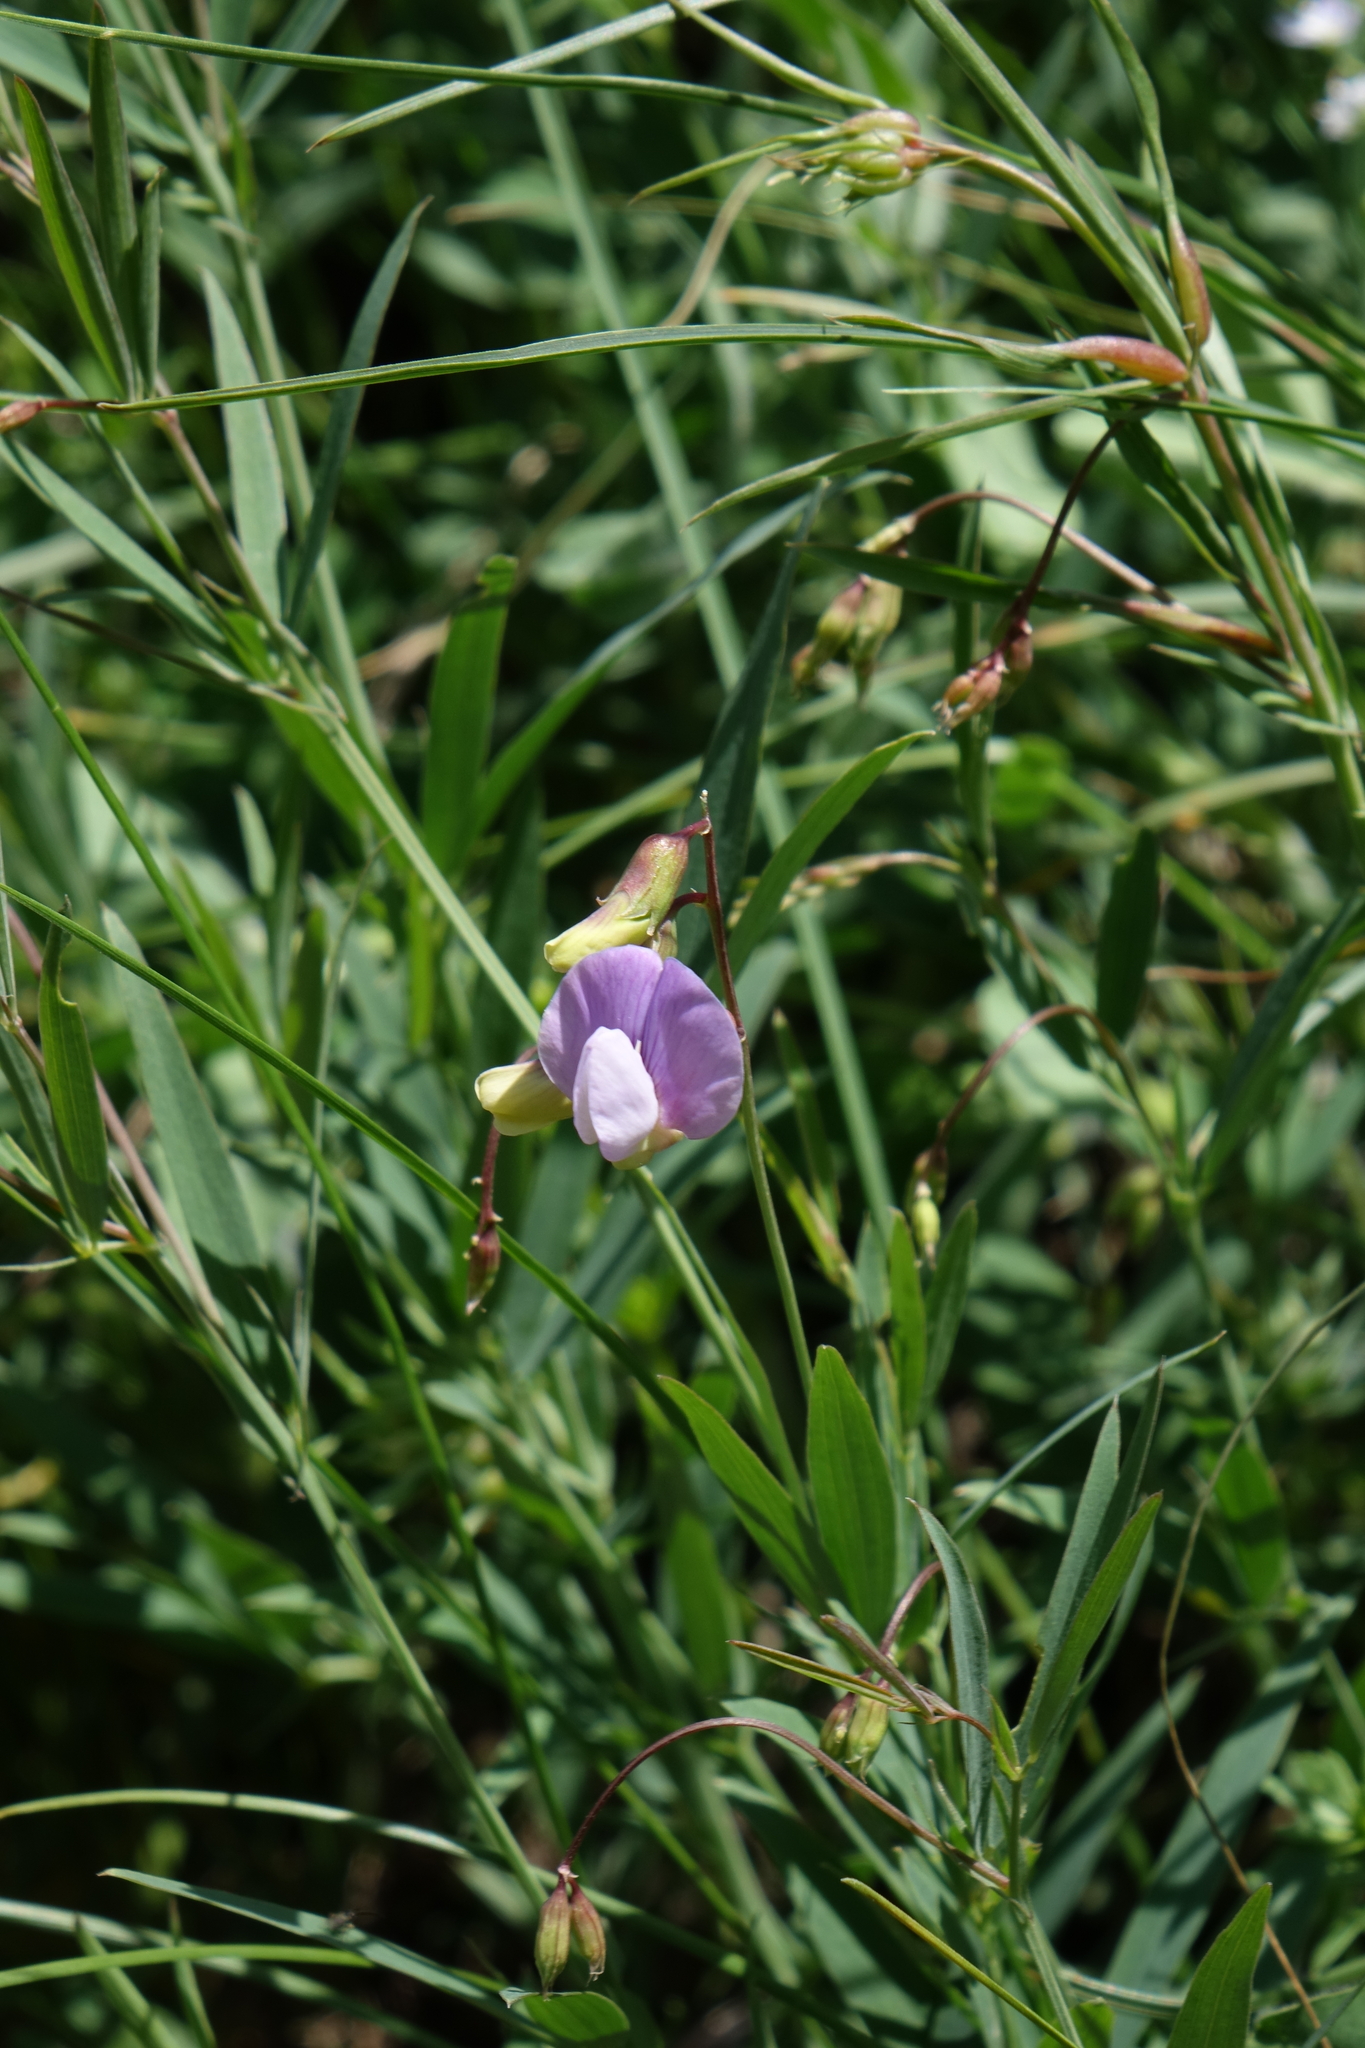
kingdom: Plantae
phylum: Tracheophyta
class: Magnoliopsida
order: Fabales
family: Fabaceae
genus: Lathyrus
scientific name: Lathyrus cyaneus
